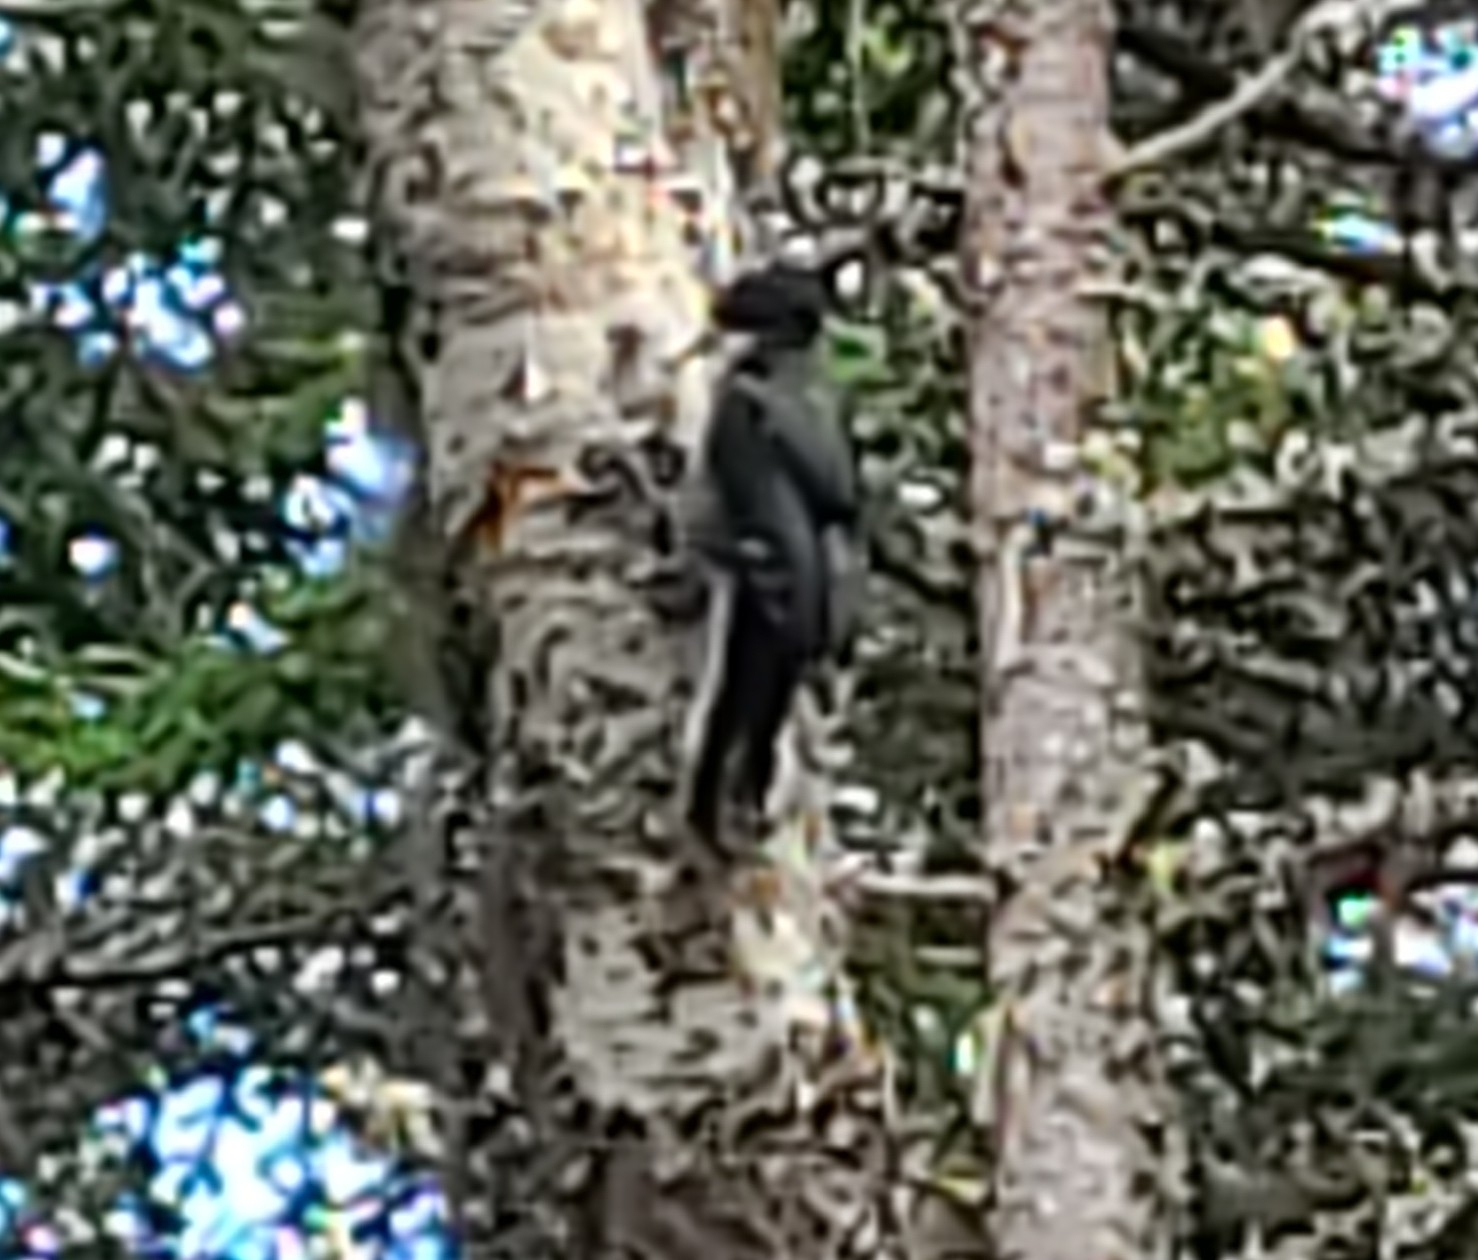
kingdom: Animalia
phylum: Chordata
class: Aves
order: Piciformes
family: Picidae
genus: Picoides
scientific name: Picoides arcticus
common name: Black-backed woodpecker
